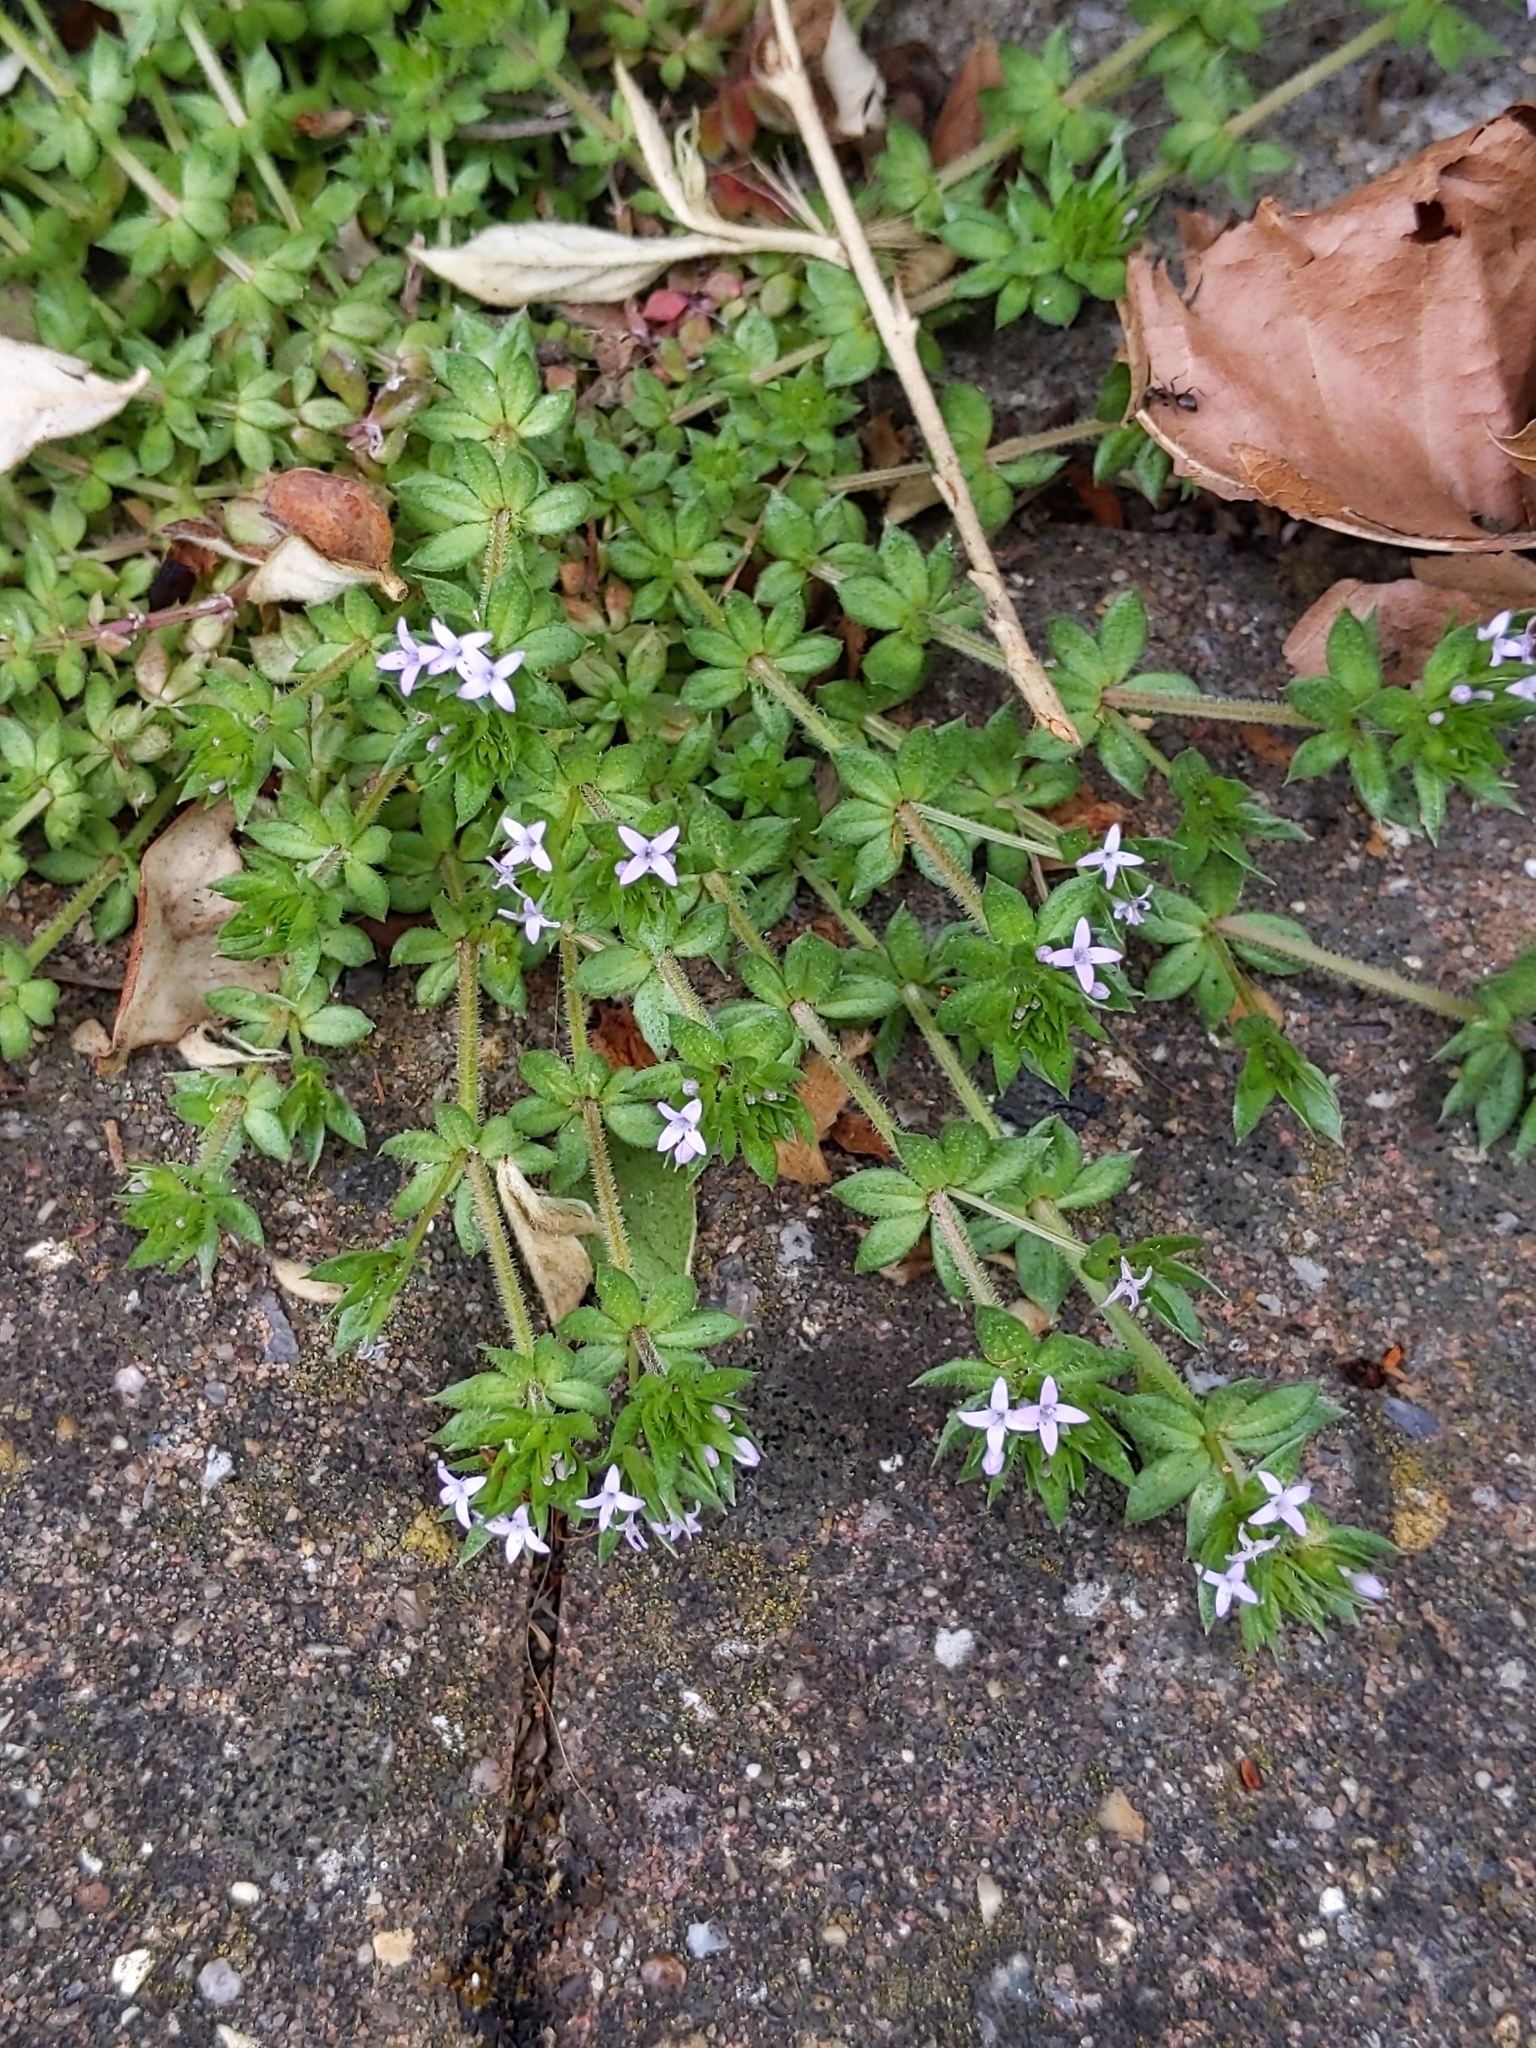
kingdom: Plantae
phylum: Tracheophyta
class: Magnoliopsida
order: Gentianales
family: Rubiaceae
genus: Sherardia
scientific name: Sherardia arvensis
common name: Field madder
